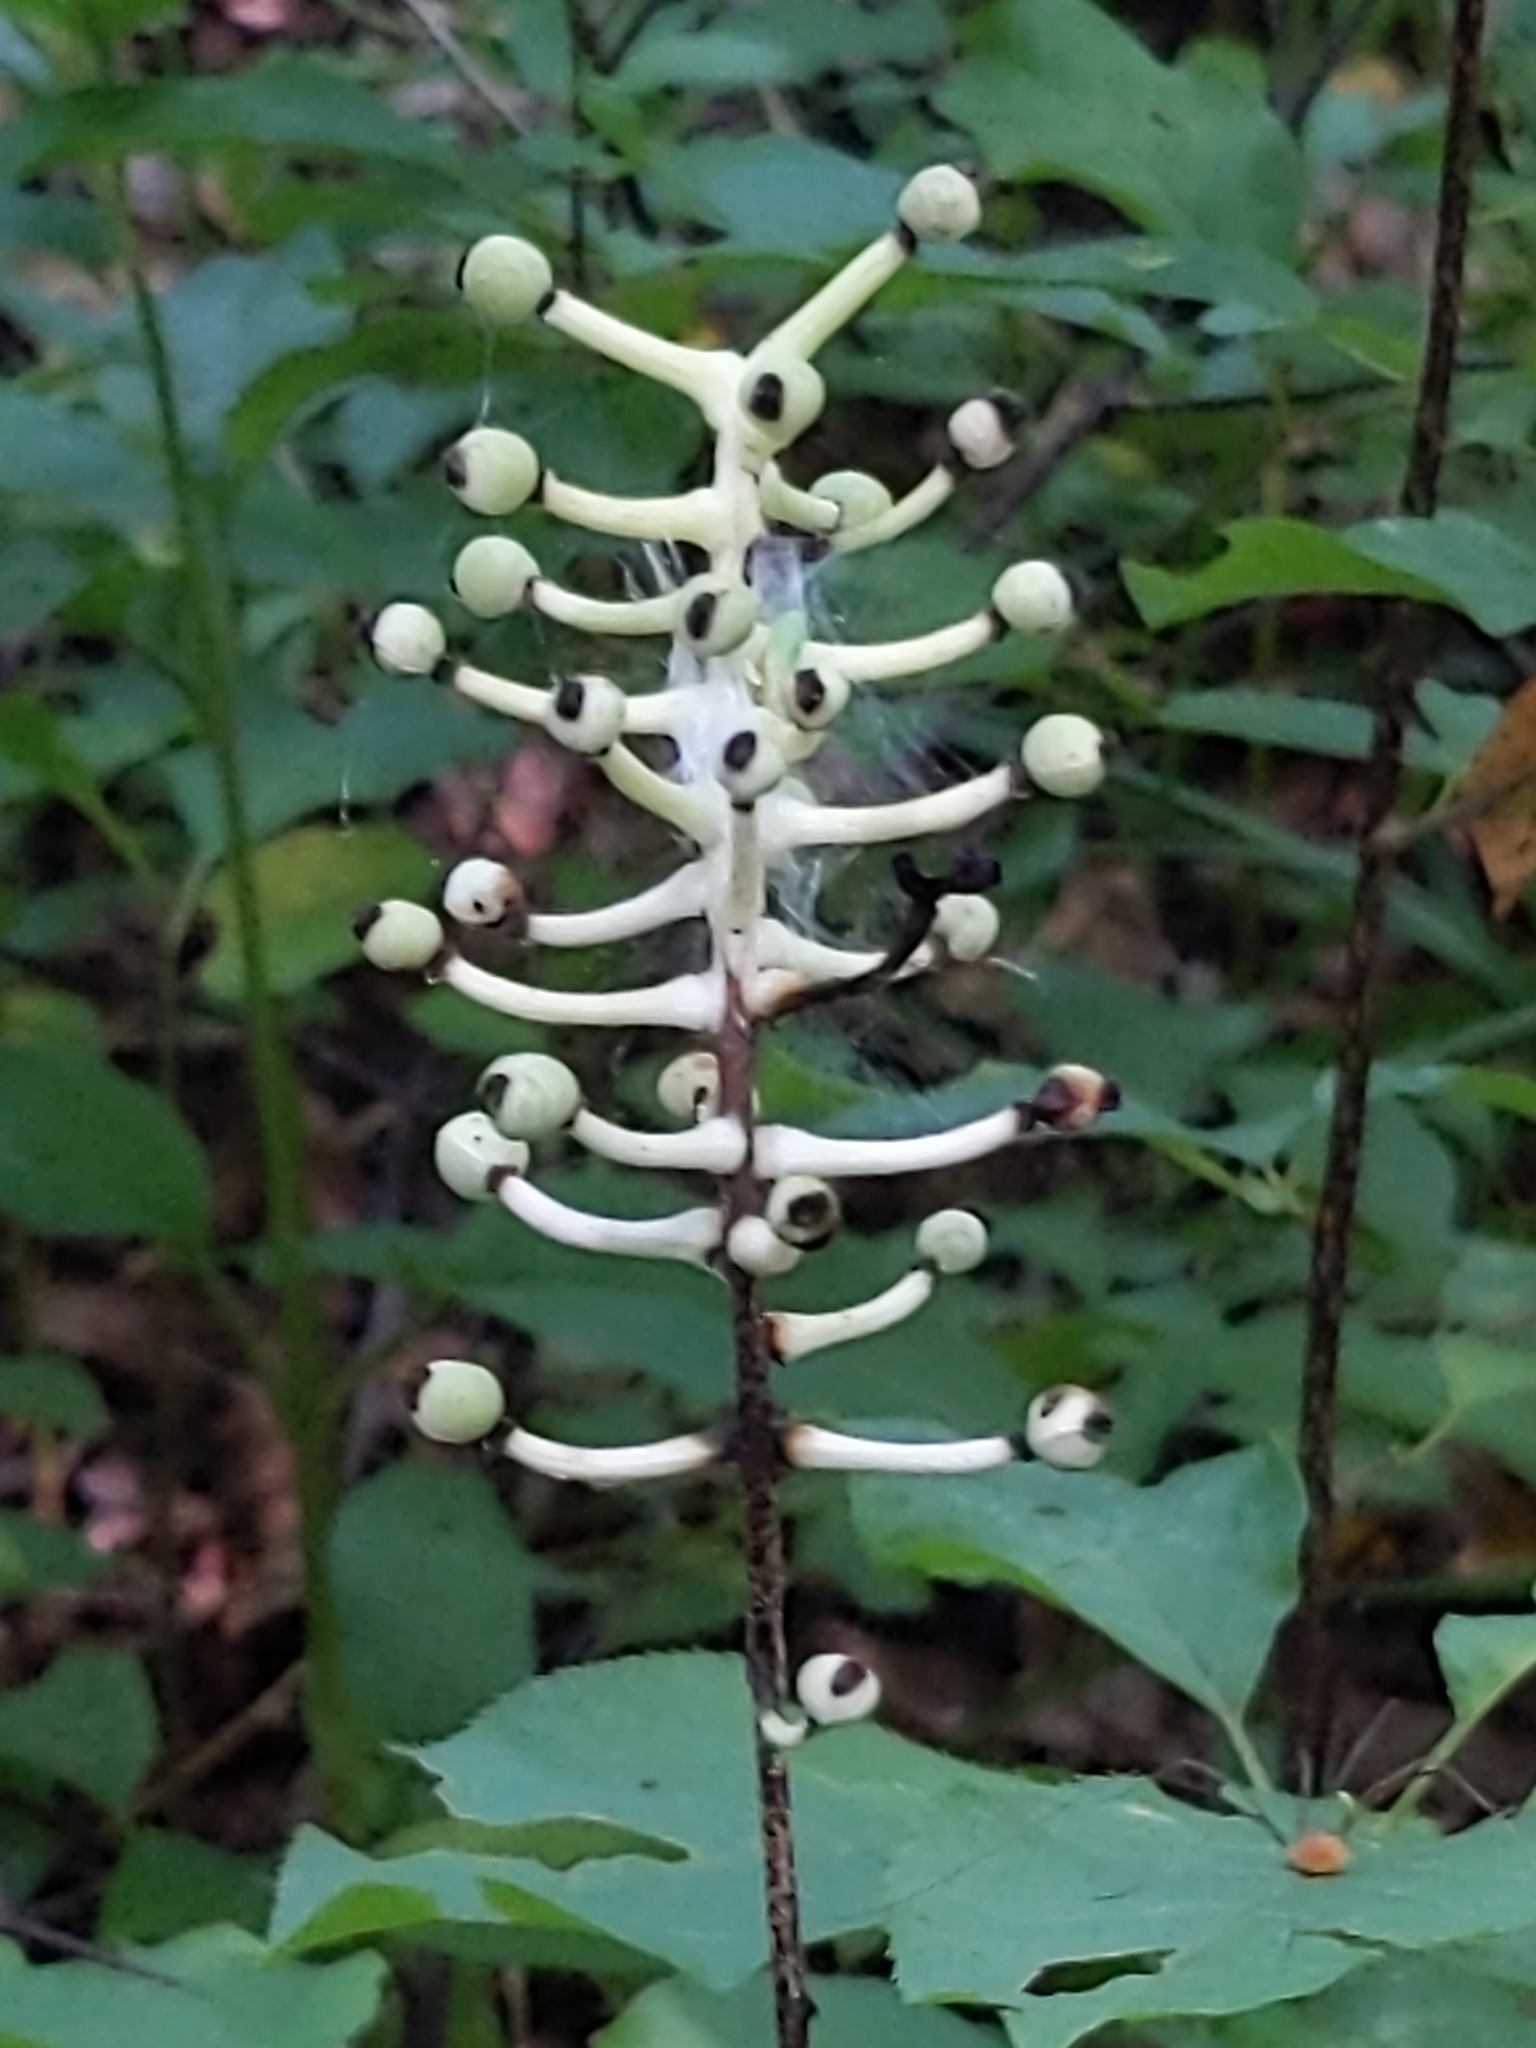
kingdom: Plantae
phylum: Tracheophyta
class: Magnoliopsida
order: Ranunculales
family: Ranunculaceae
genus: Actaea
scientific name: Actaea pachypoda
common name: Doll's-eyes
